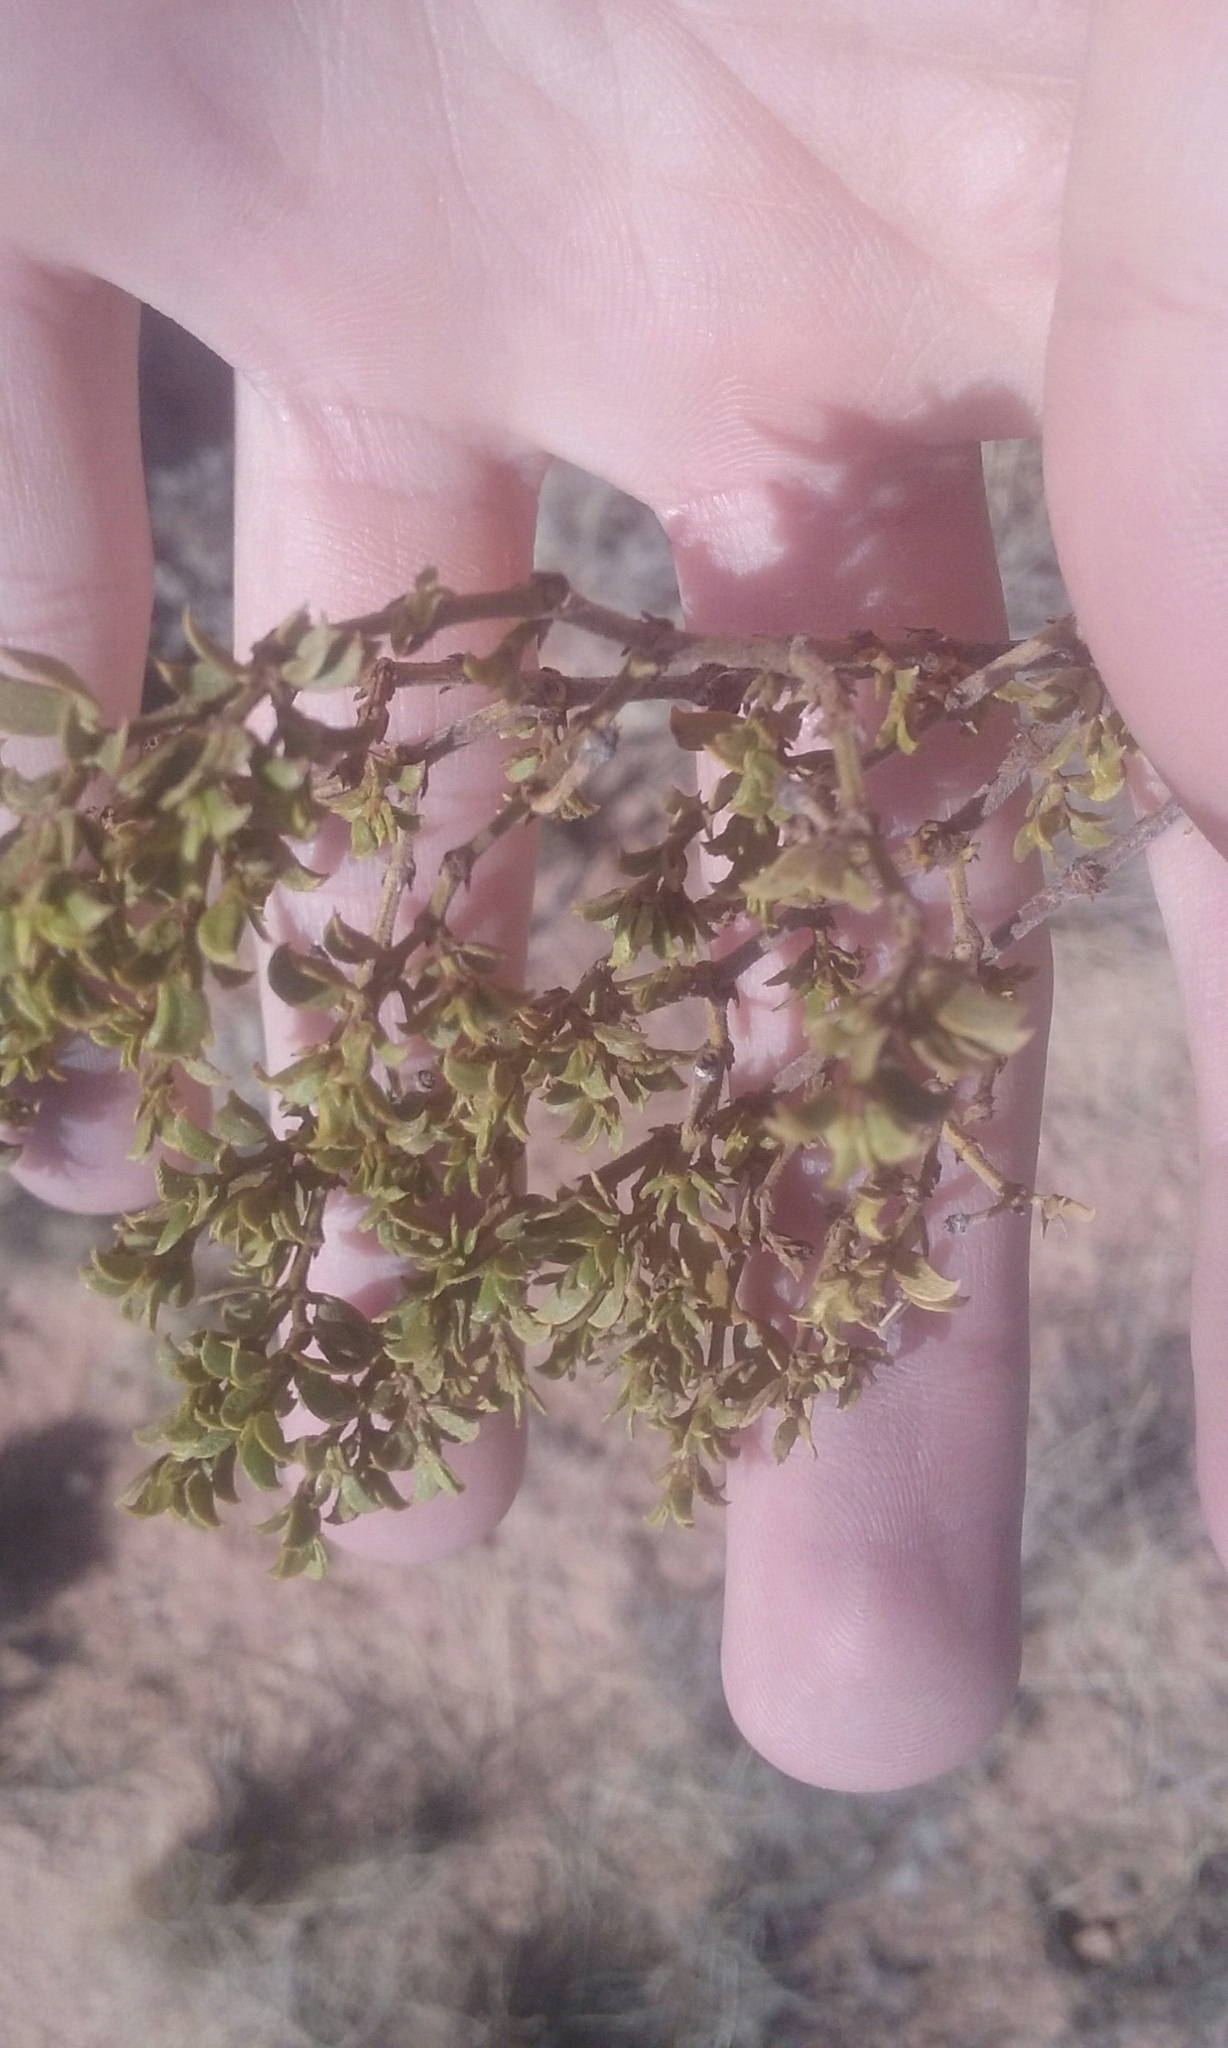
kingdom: Plantae
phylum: Tracheophyta
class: Magnoliopsida
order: Zygophyllales
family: Zygophyllaceae
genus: Larrea
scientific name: Larrea tridentata
